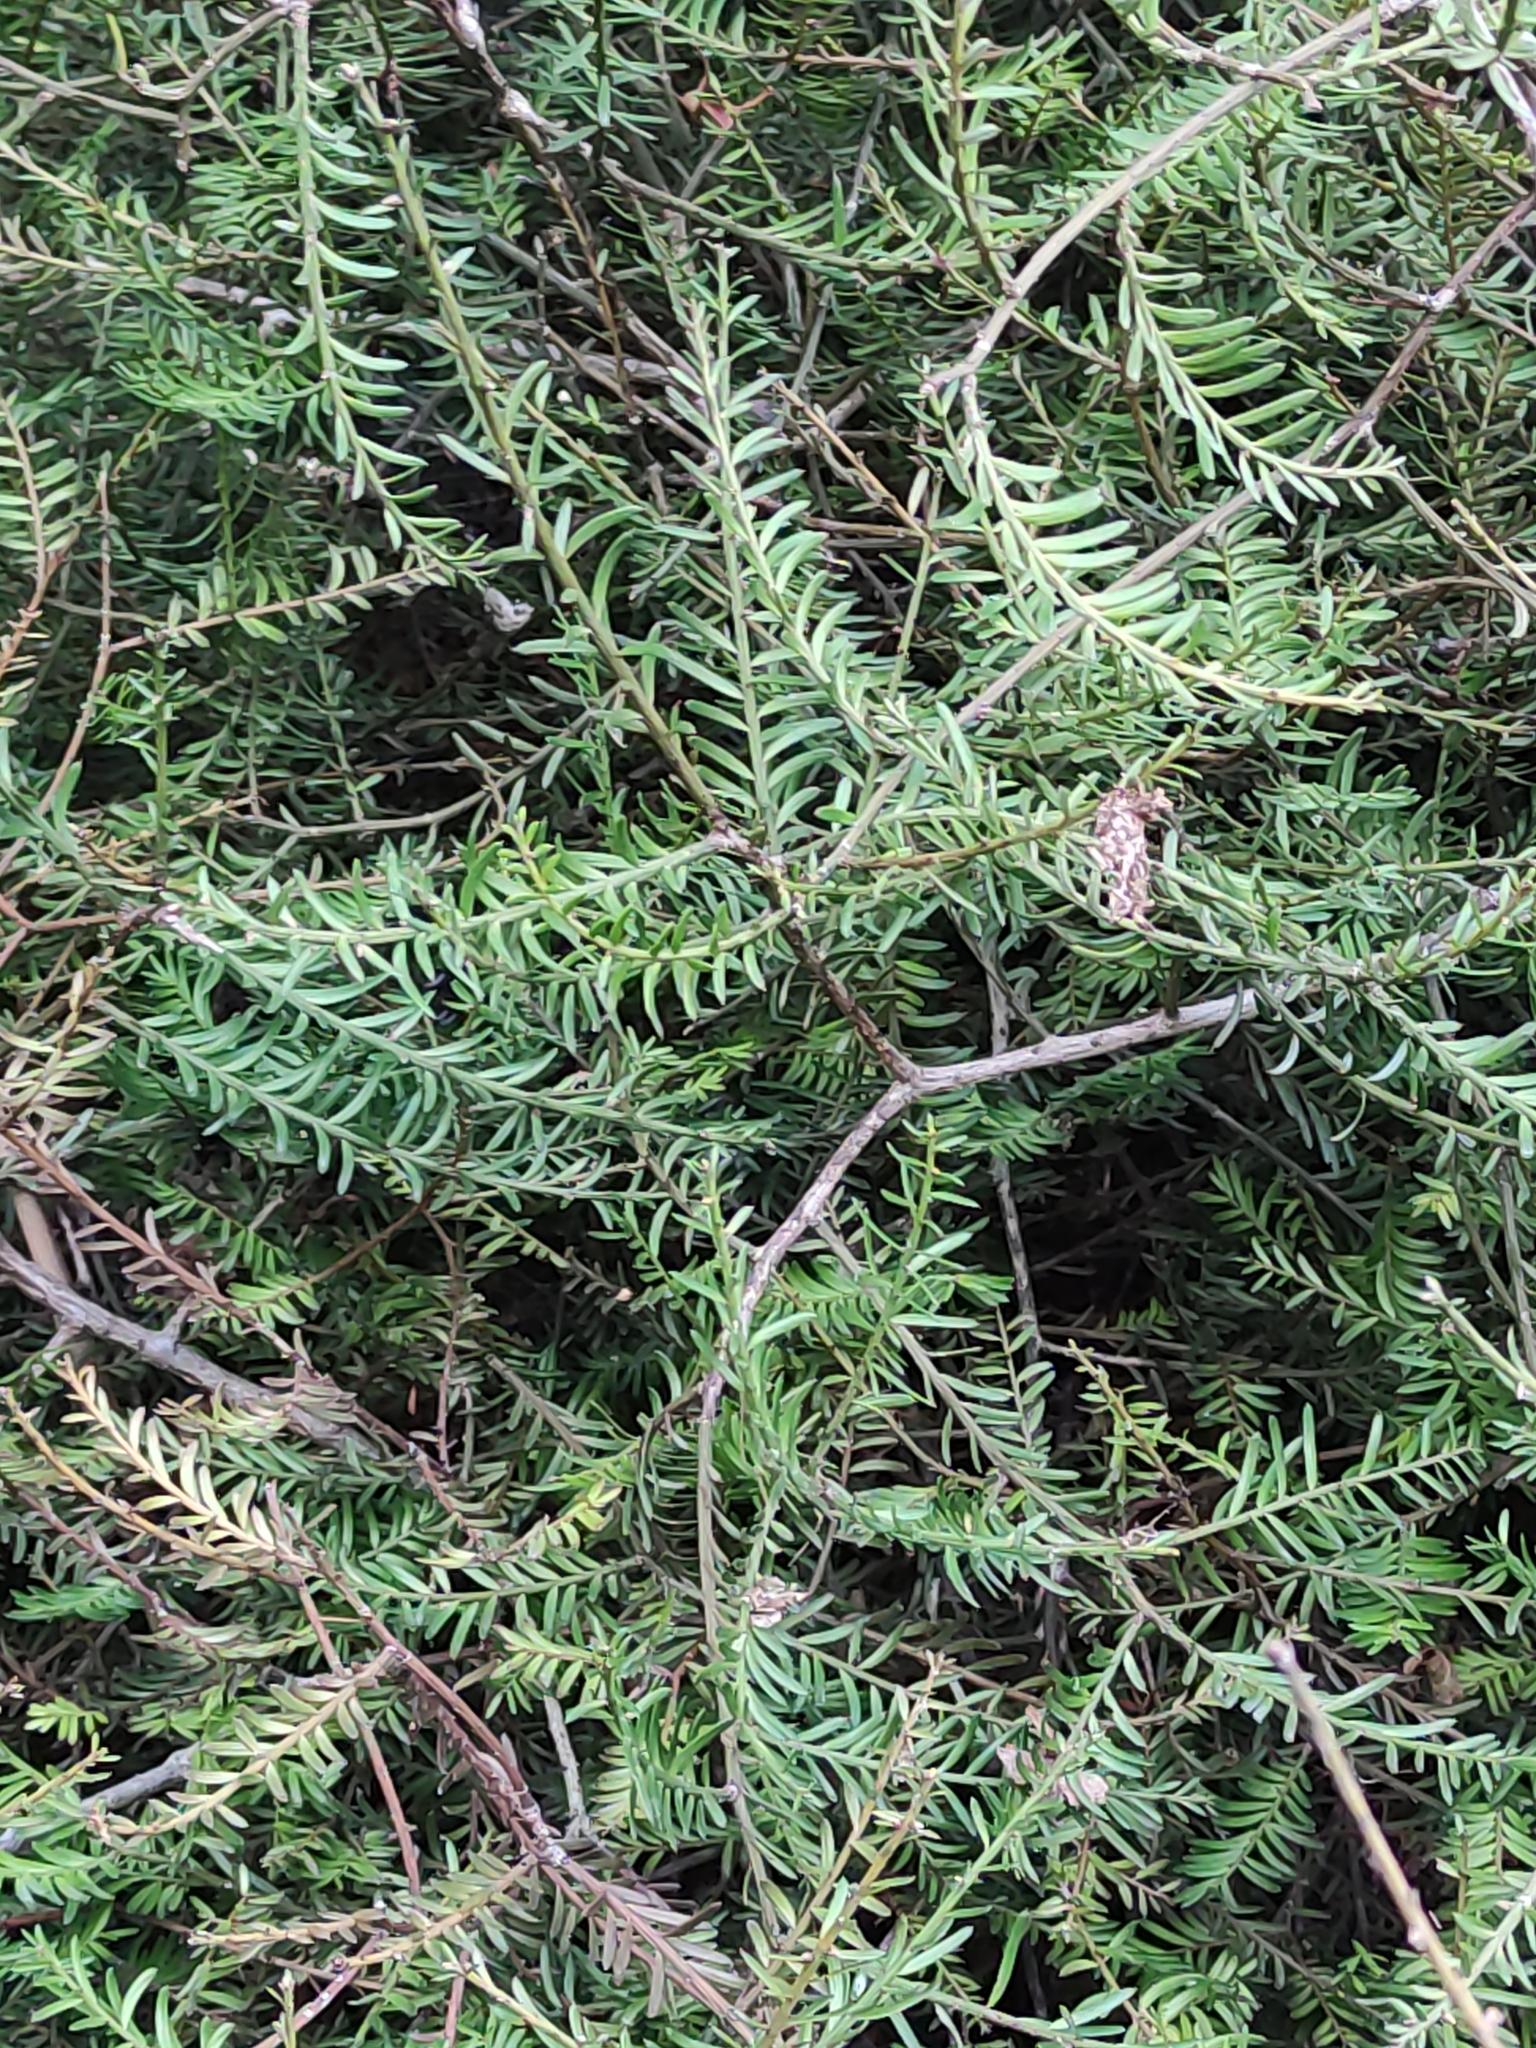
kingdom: Plantae
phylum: Tracheophyta
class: Pinopsida
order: Pinales
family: Podocarpaceae
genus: Prumnopitys
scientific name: Prumnopitys taxifolia
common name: Matai
